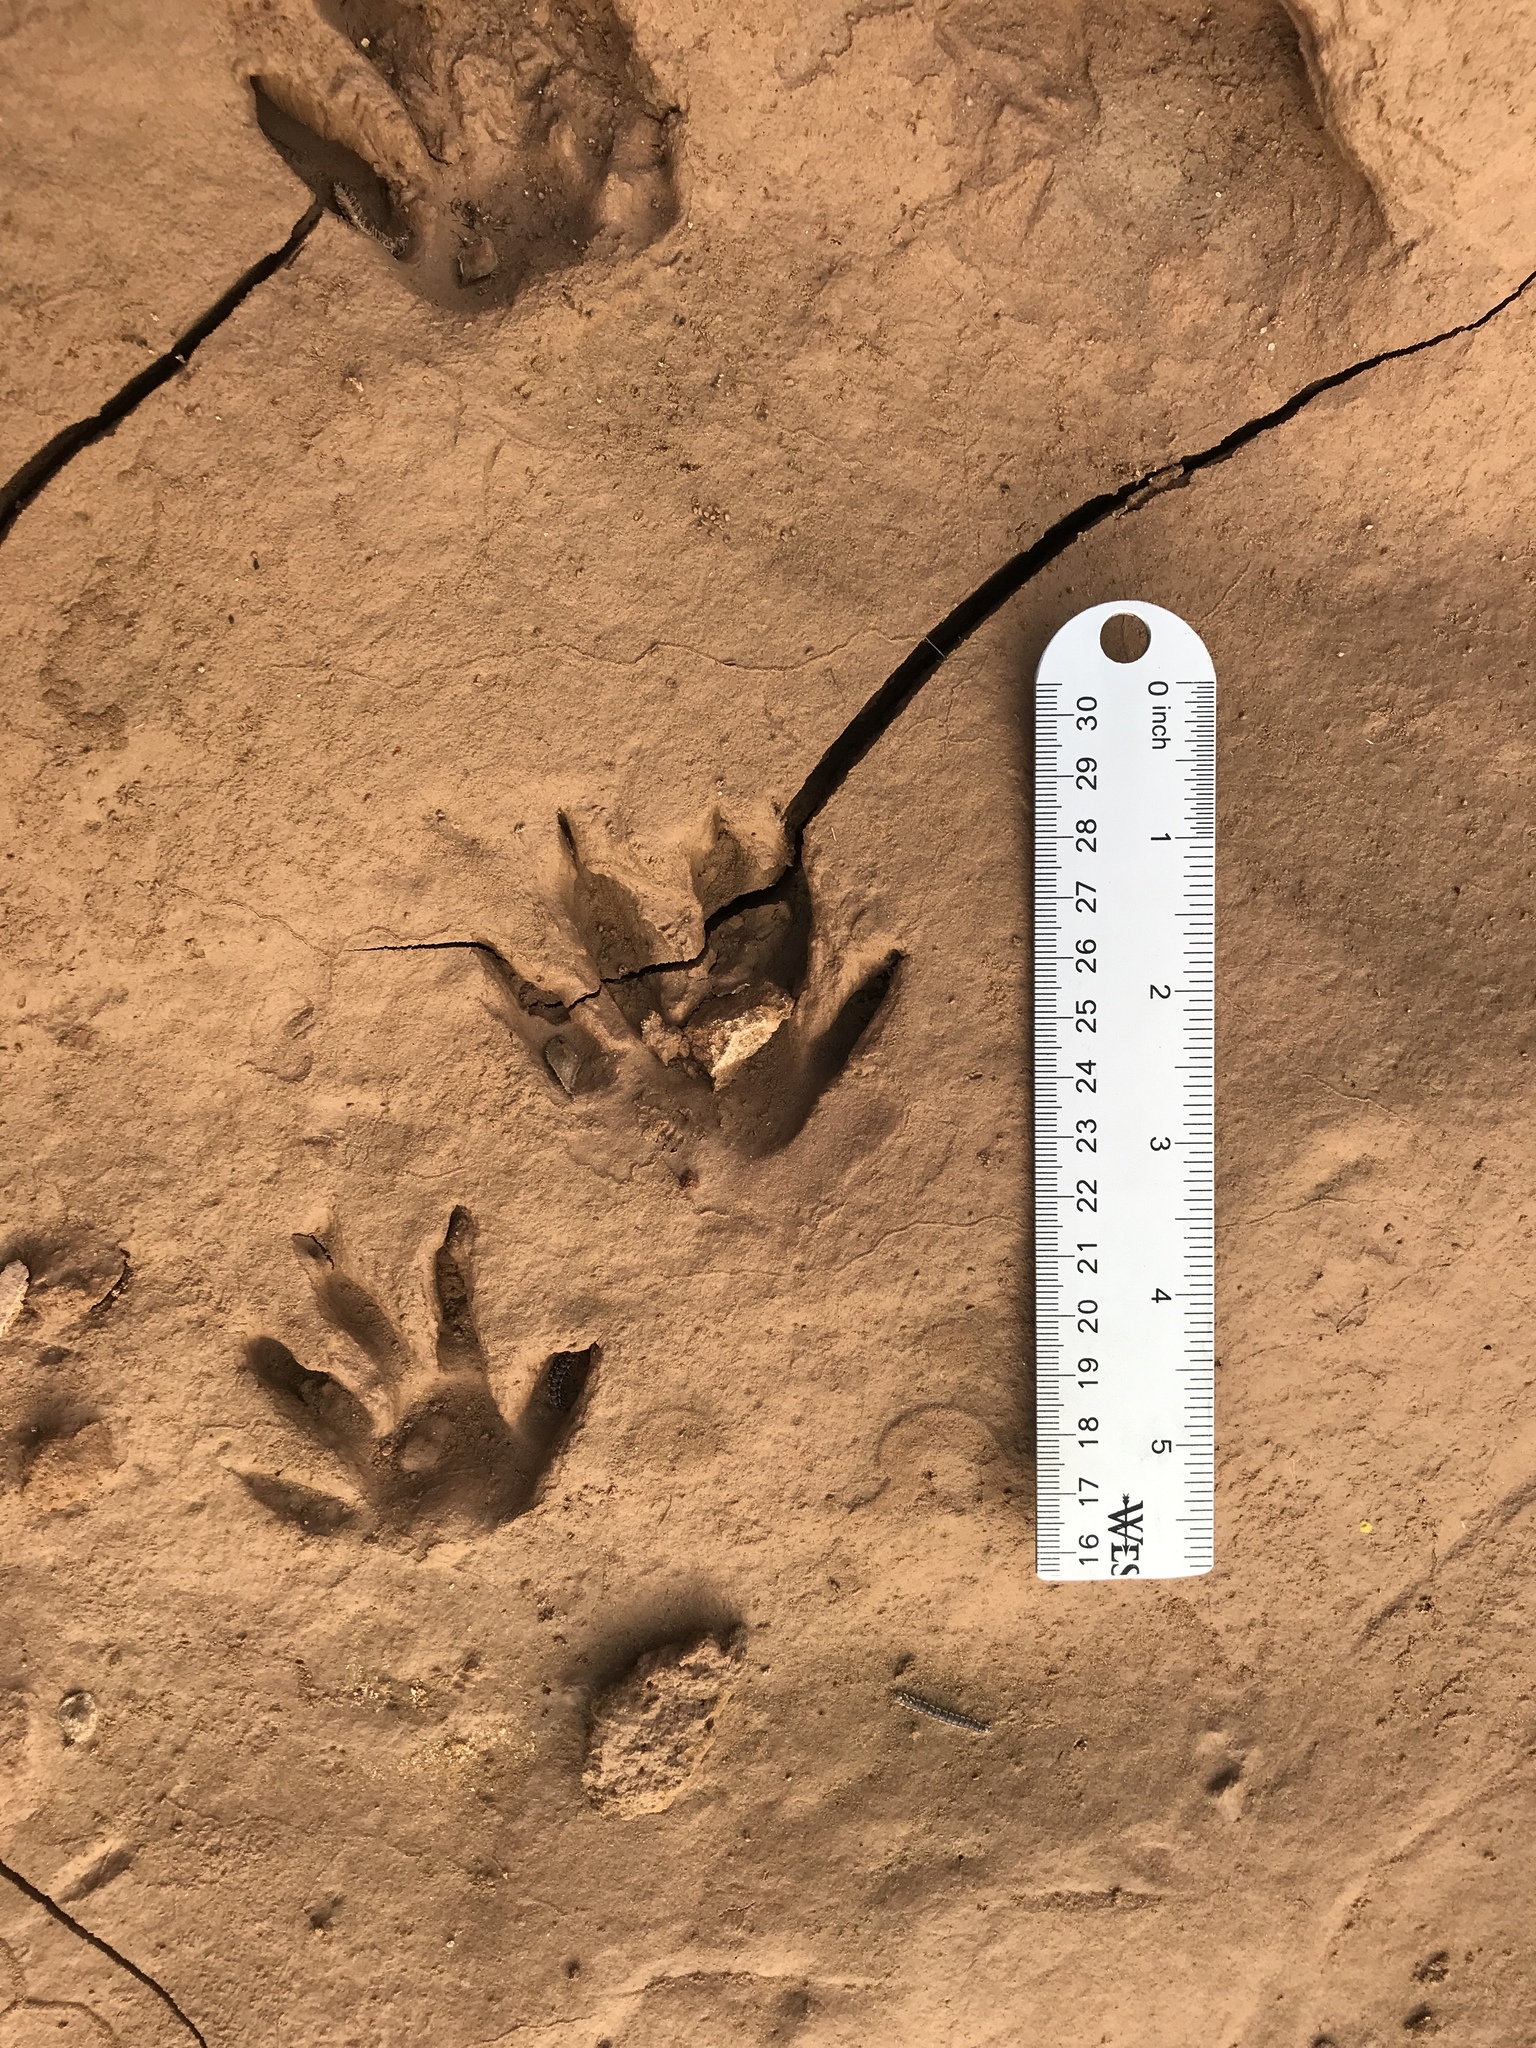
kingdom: Animalia
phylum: Chordata
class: Mammalia
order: Carnivora
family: Procyonidae
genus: Procyon
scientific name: Procyon lotor
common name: Raccoon
